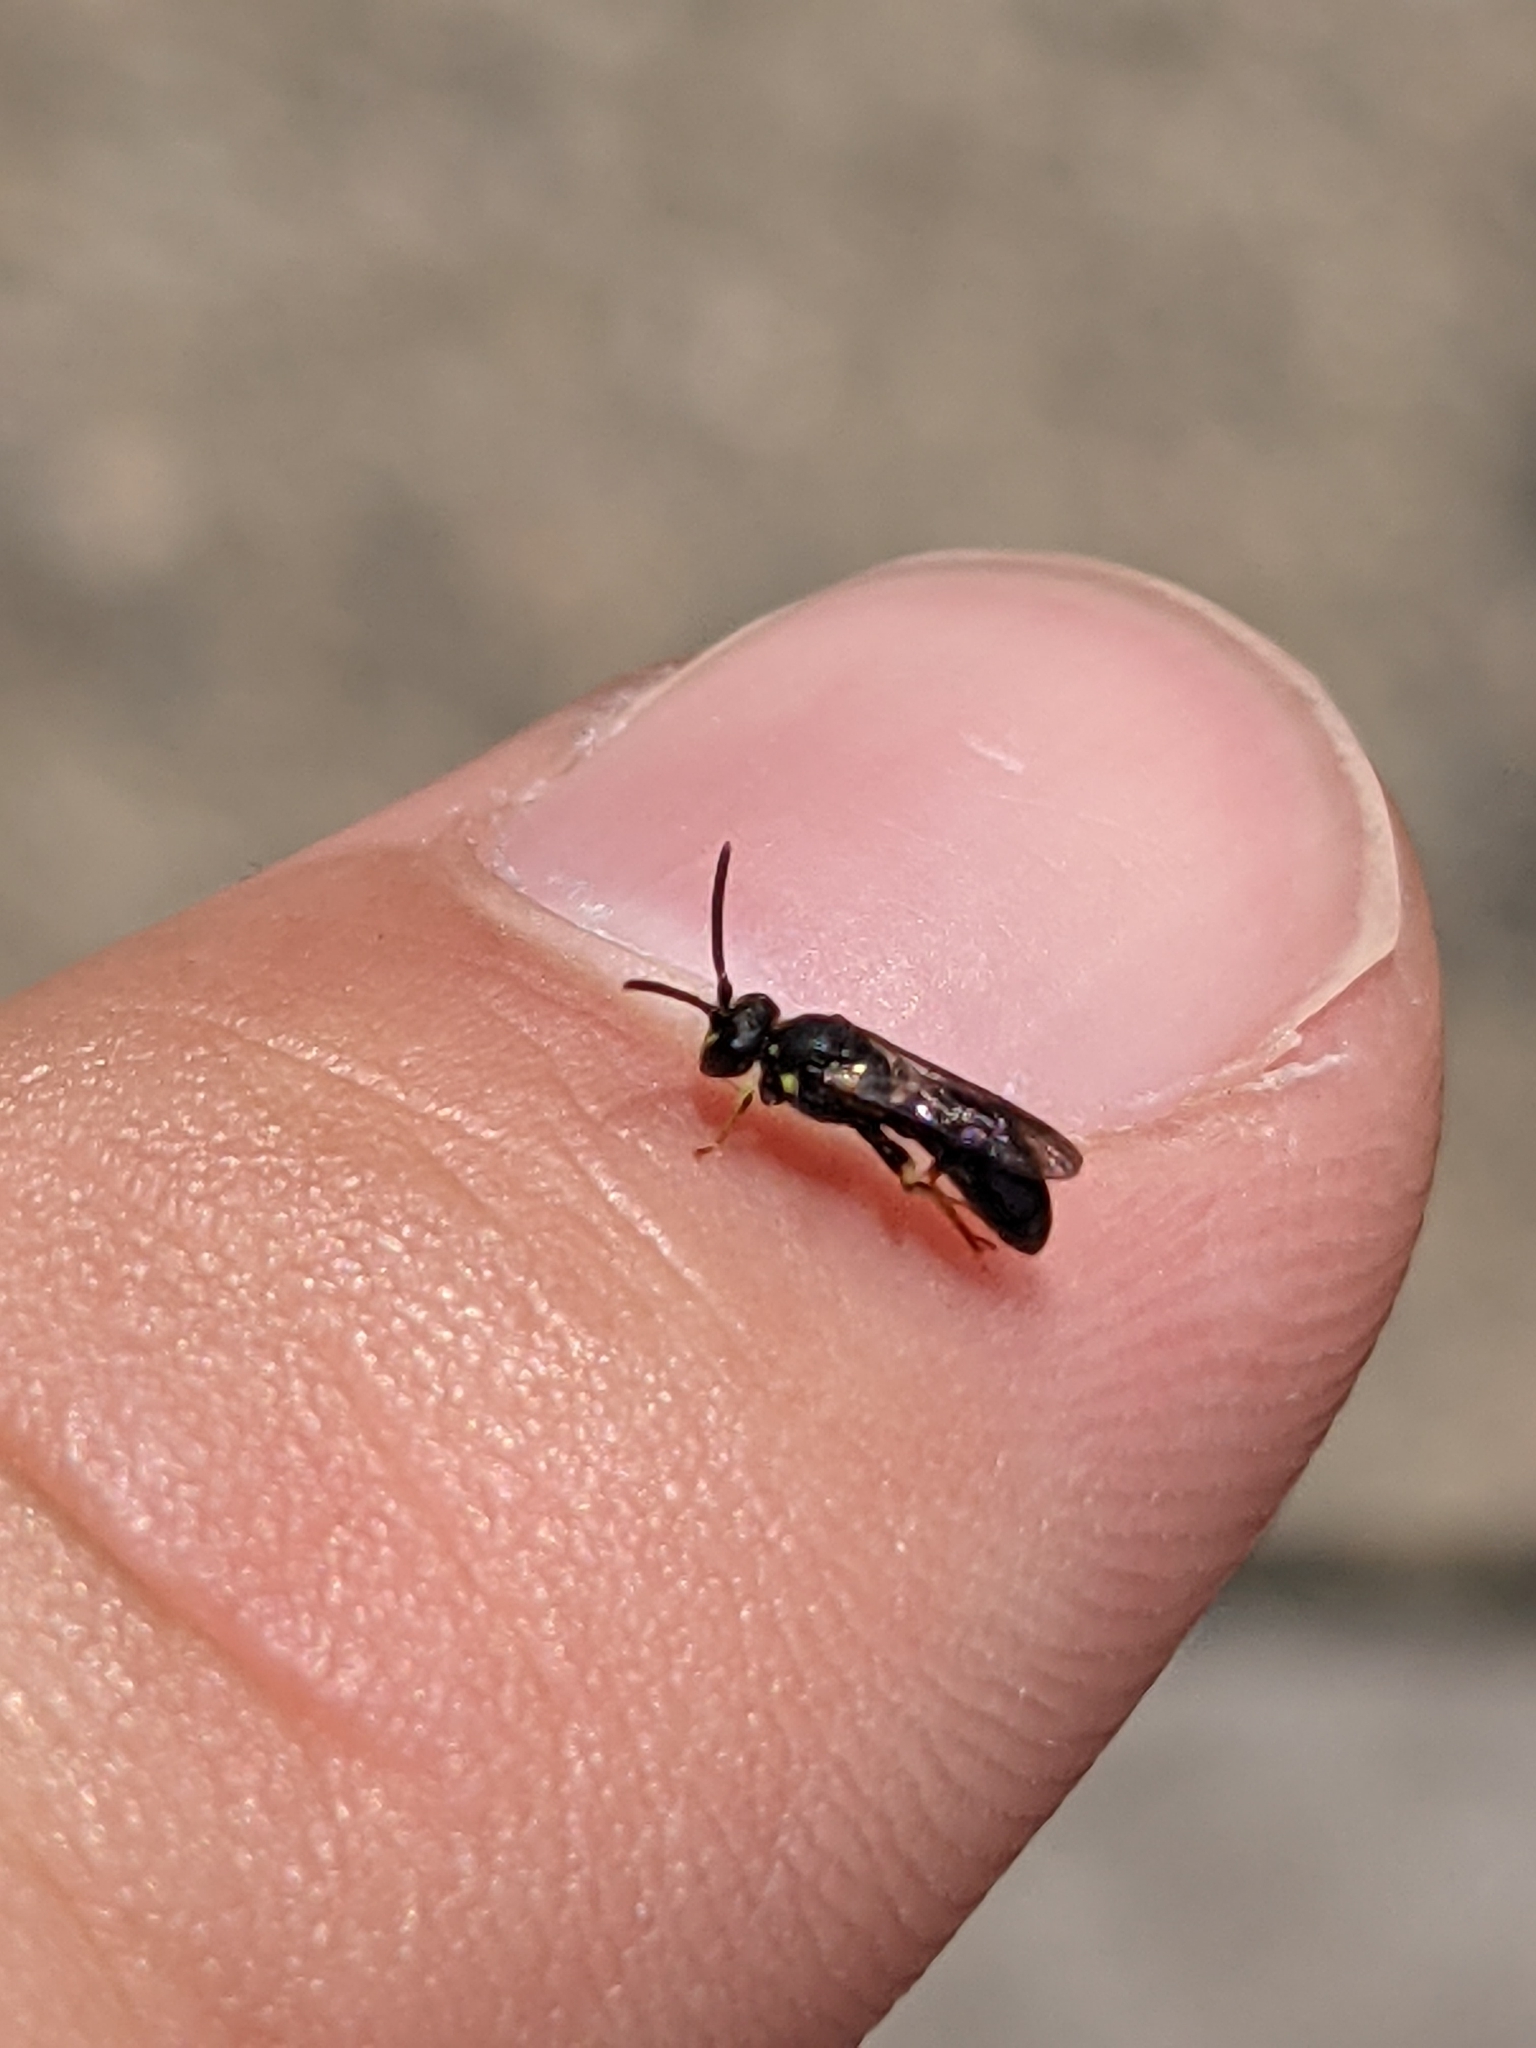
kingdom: Animalia
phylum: Arthropoda
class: Insecta
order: Hymenoptera
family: Colletidae
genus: Hylaeus
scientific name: Hylaeus modestus
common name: Yellow-faced bee
